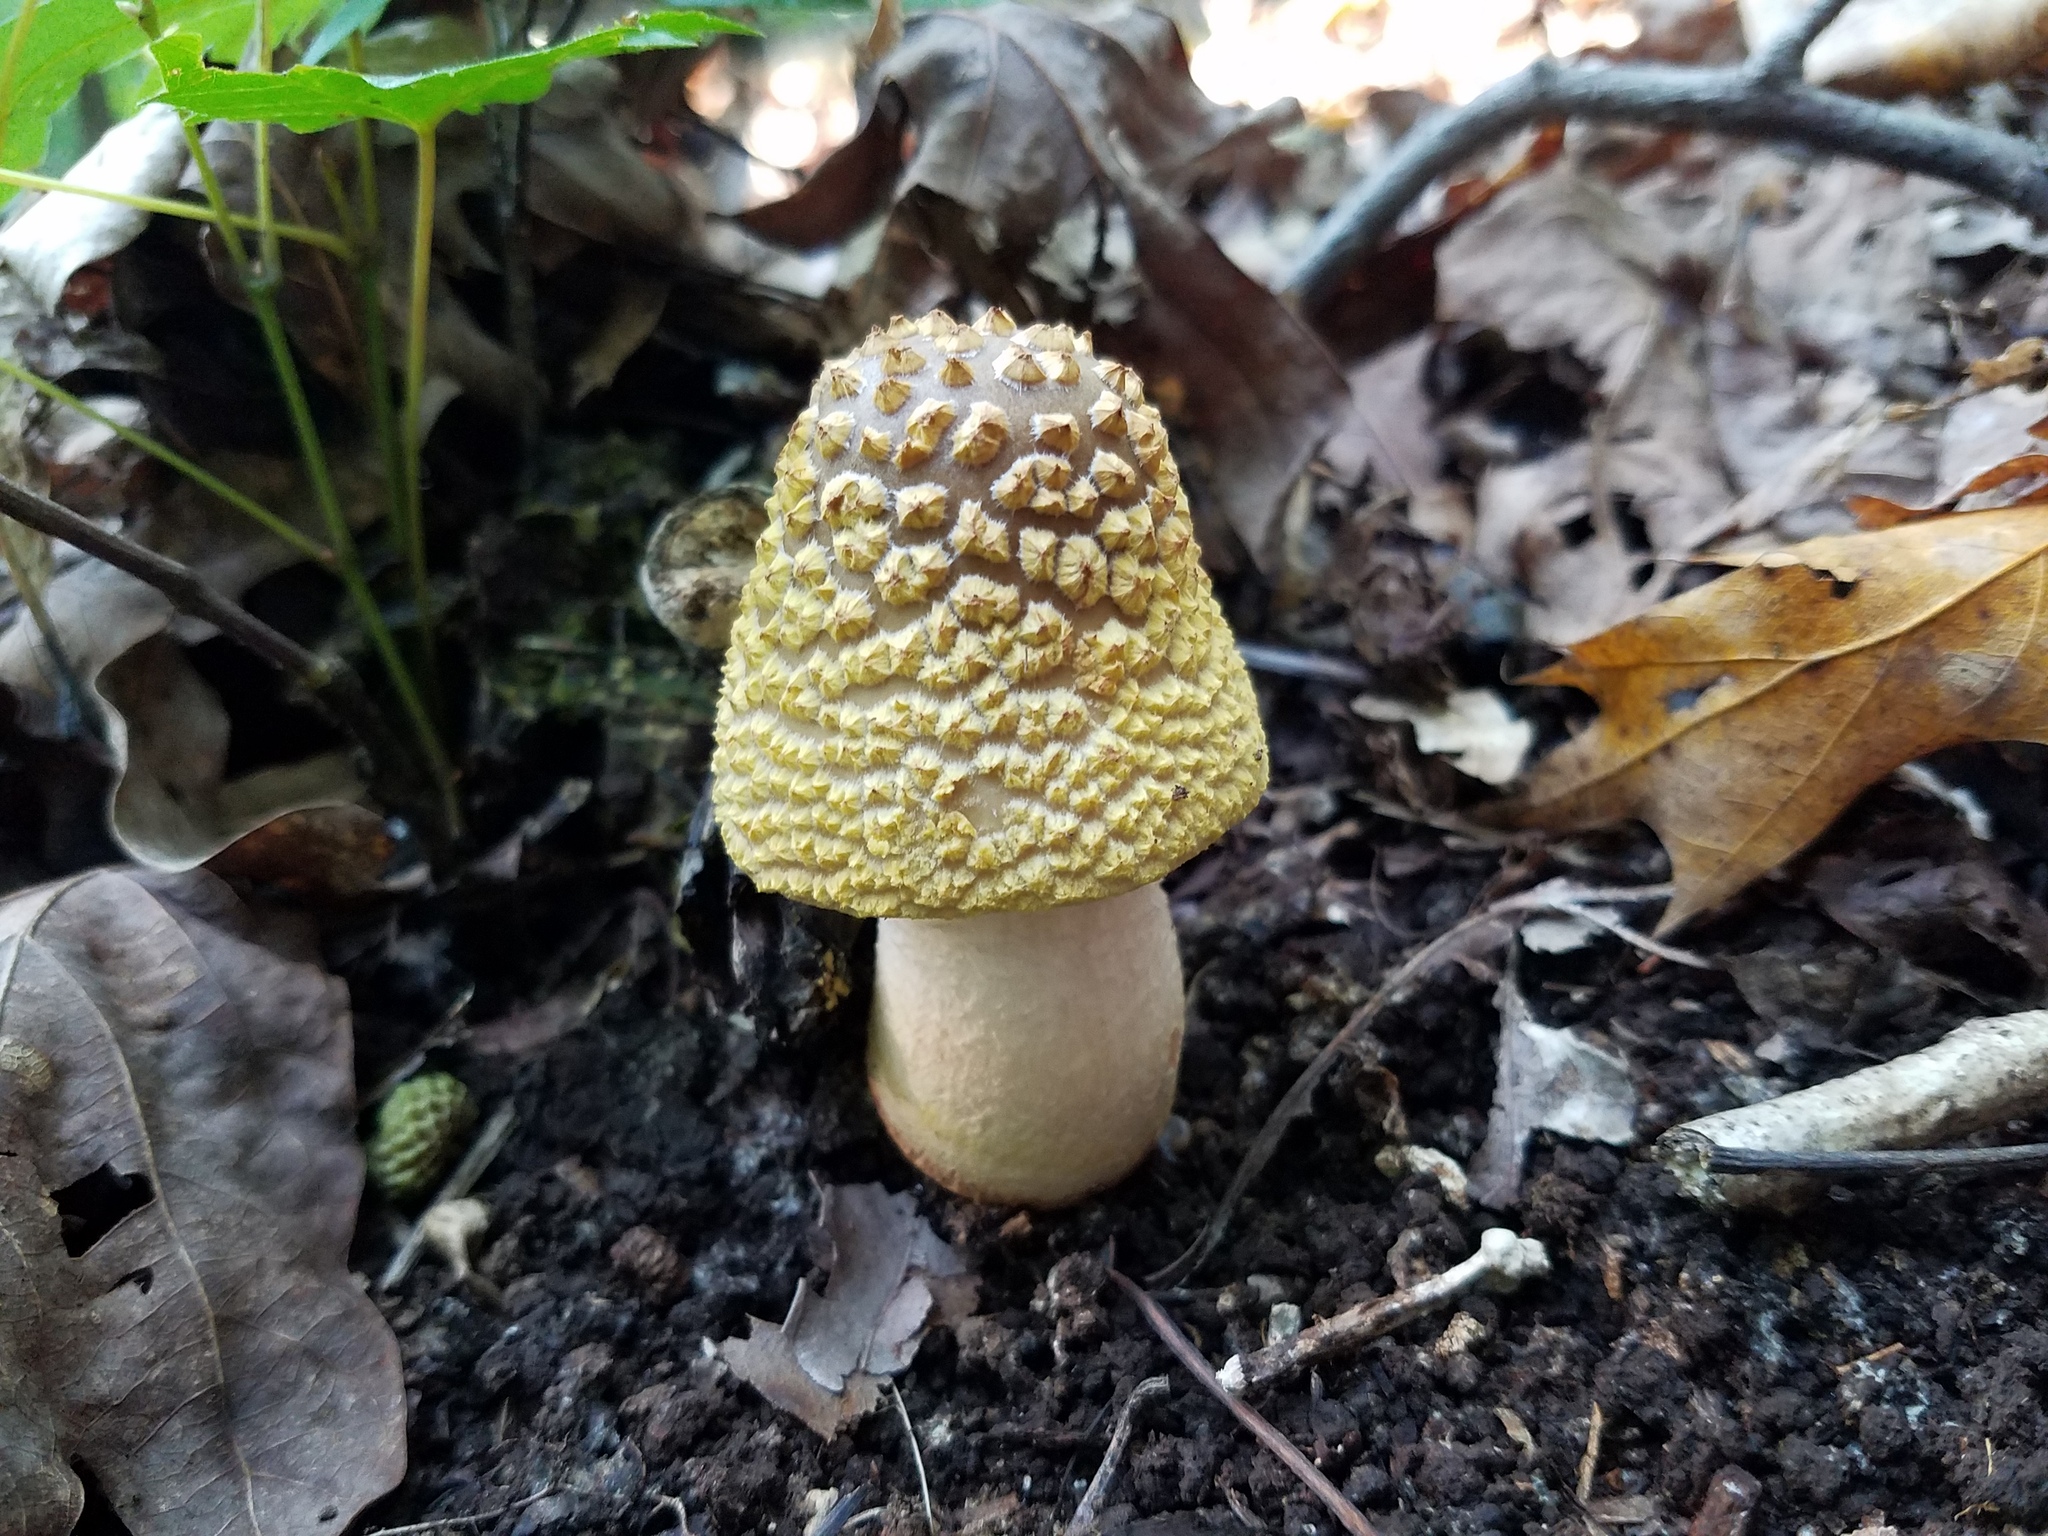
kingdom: Fungi
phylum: Basidiomycota
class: Agaricomycetes
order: Agaricales
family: Amanitaceae
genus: Amanita
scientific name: Amanita flavorubens
